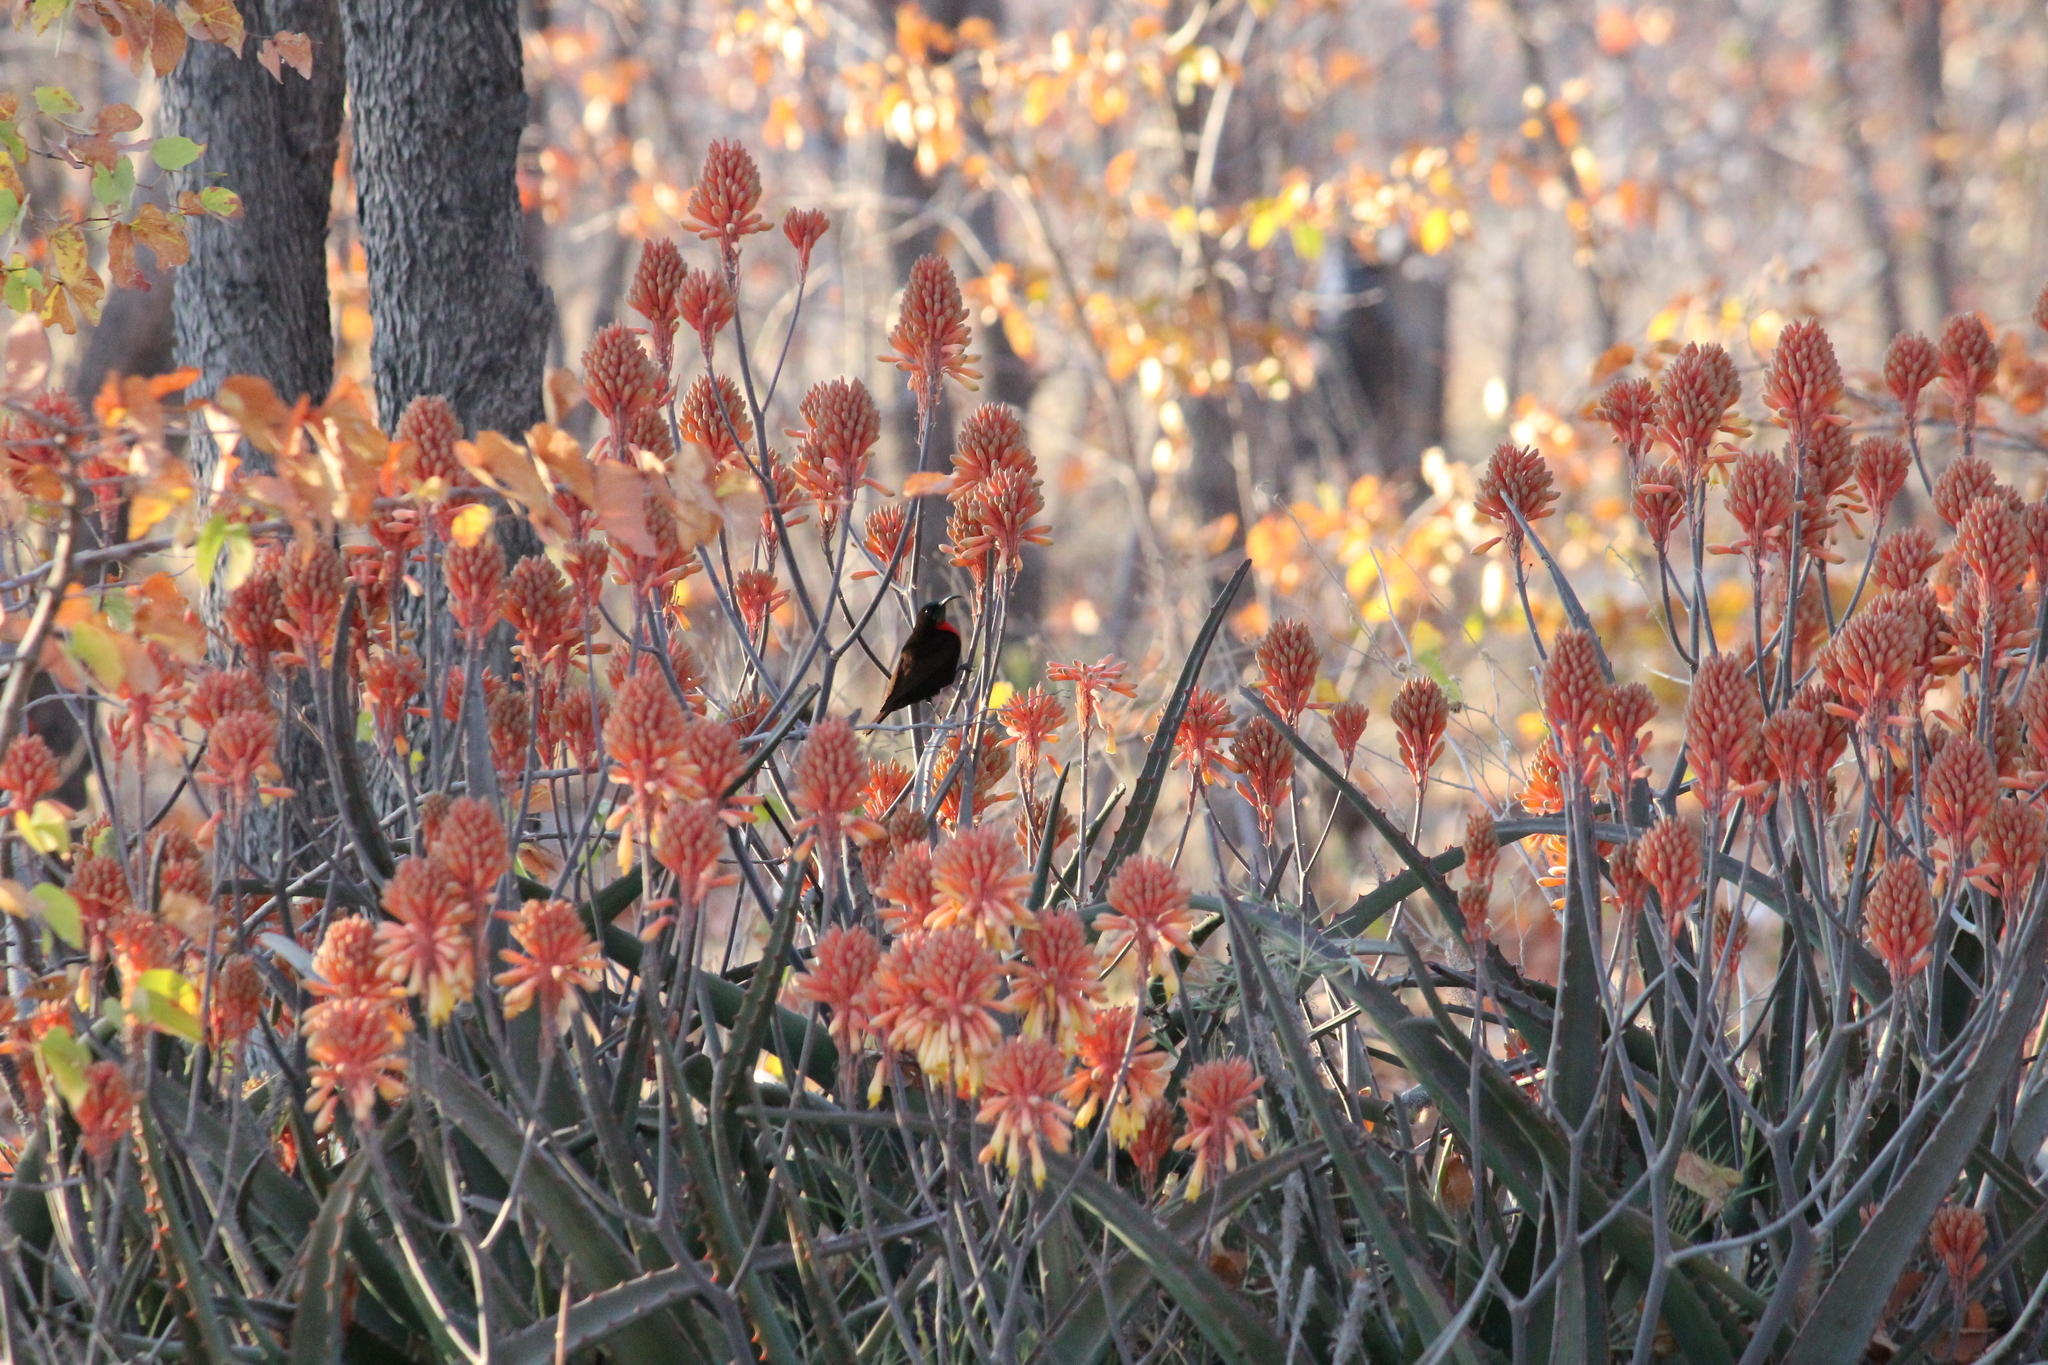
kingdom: Animalia
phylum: Chordata
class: Aves
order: Passeriformes
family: Nectariniidae
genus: Chalcomitra
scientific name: Chalcomitra senegalensis
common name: Scarlet-chested sunbird
